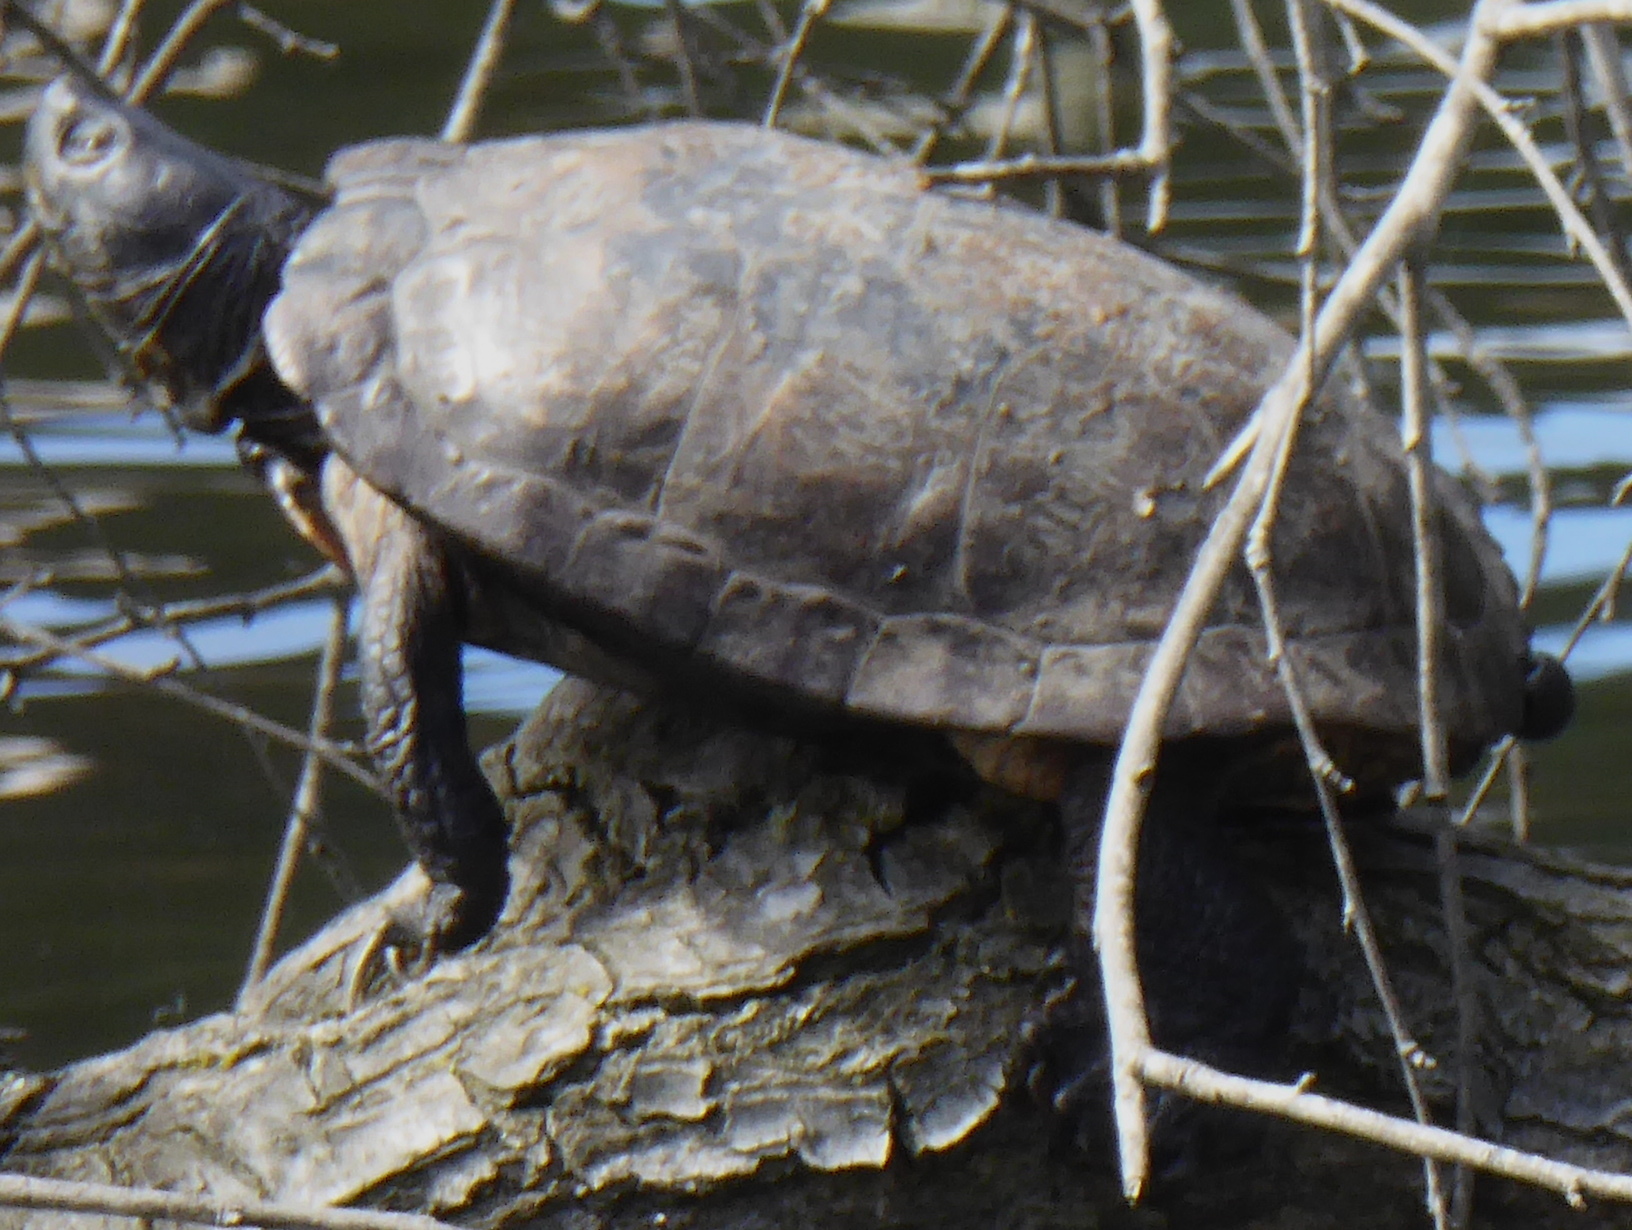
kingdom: Animalia
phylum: Chordata
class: Testudines
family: Emydidae
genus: Trachemys
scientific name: Trachemys scripta
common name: Slider
